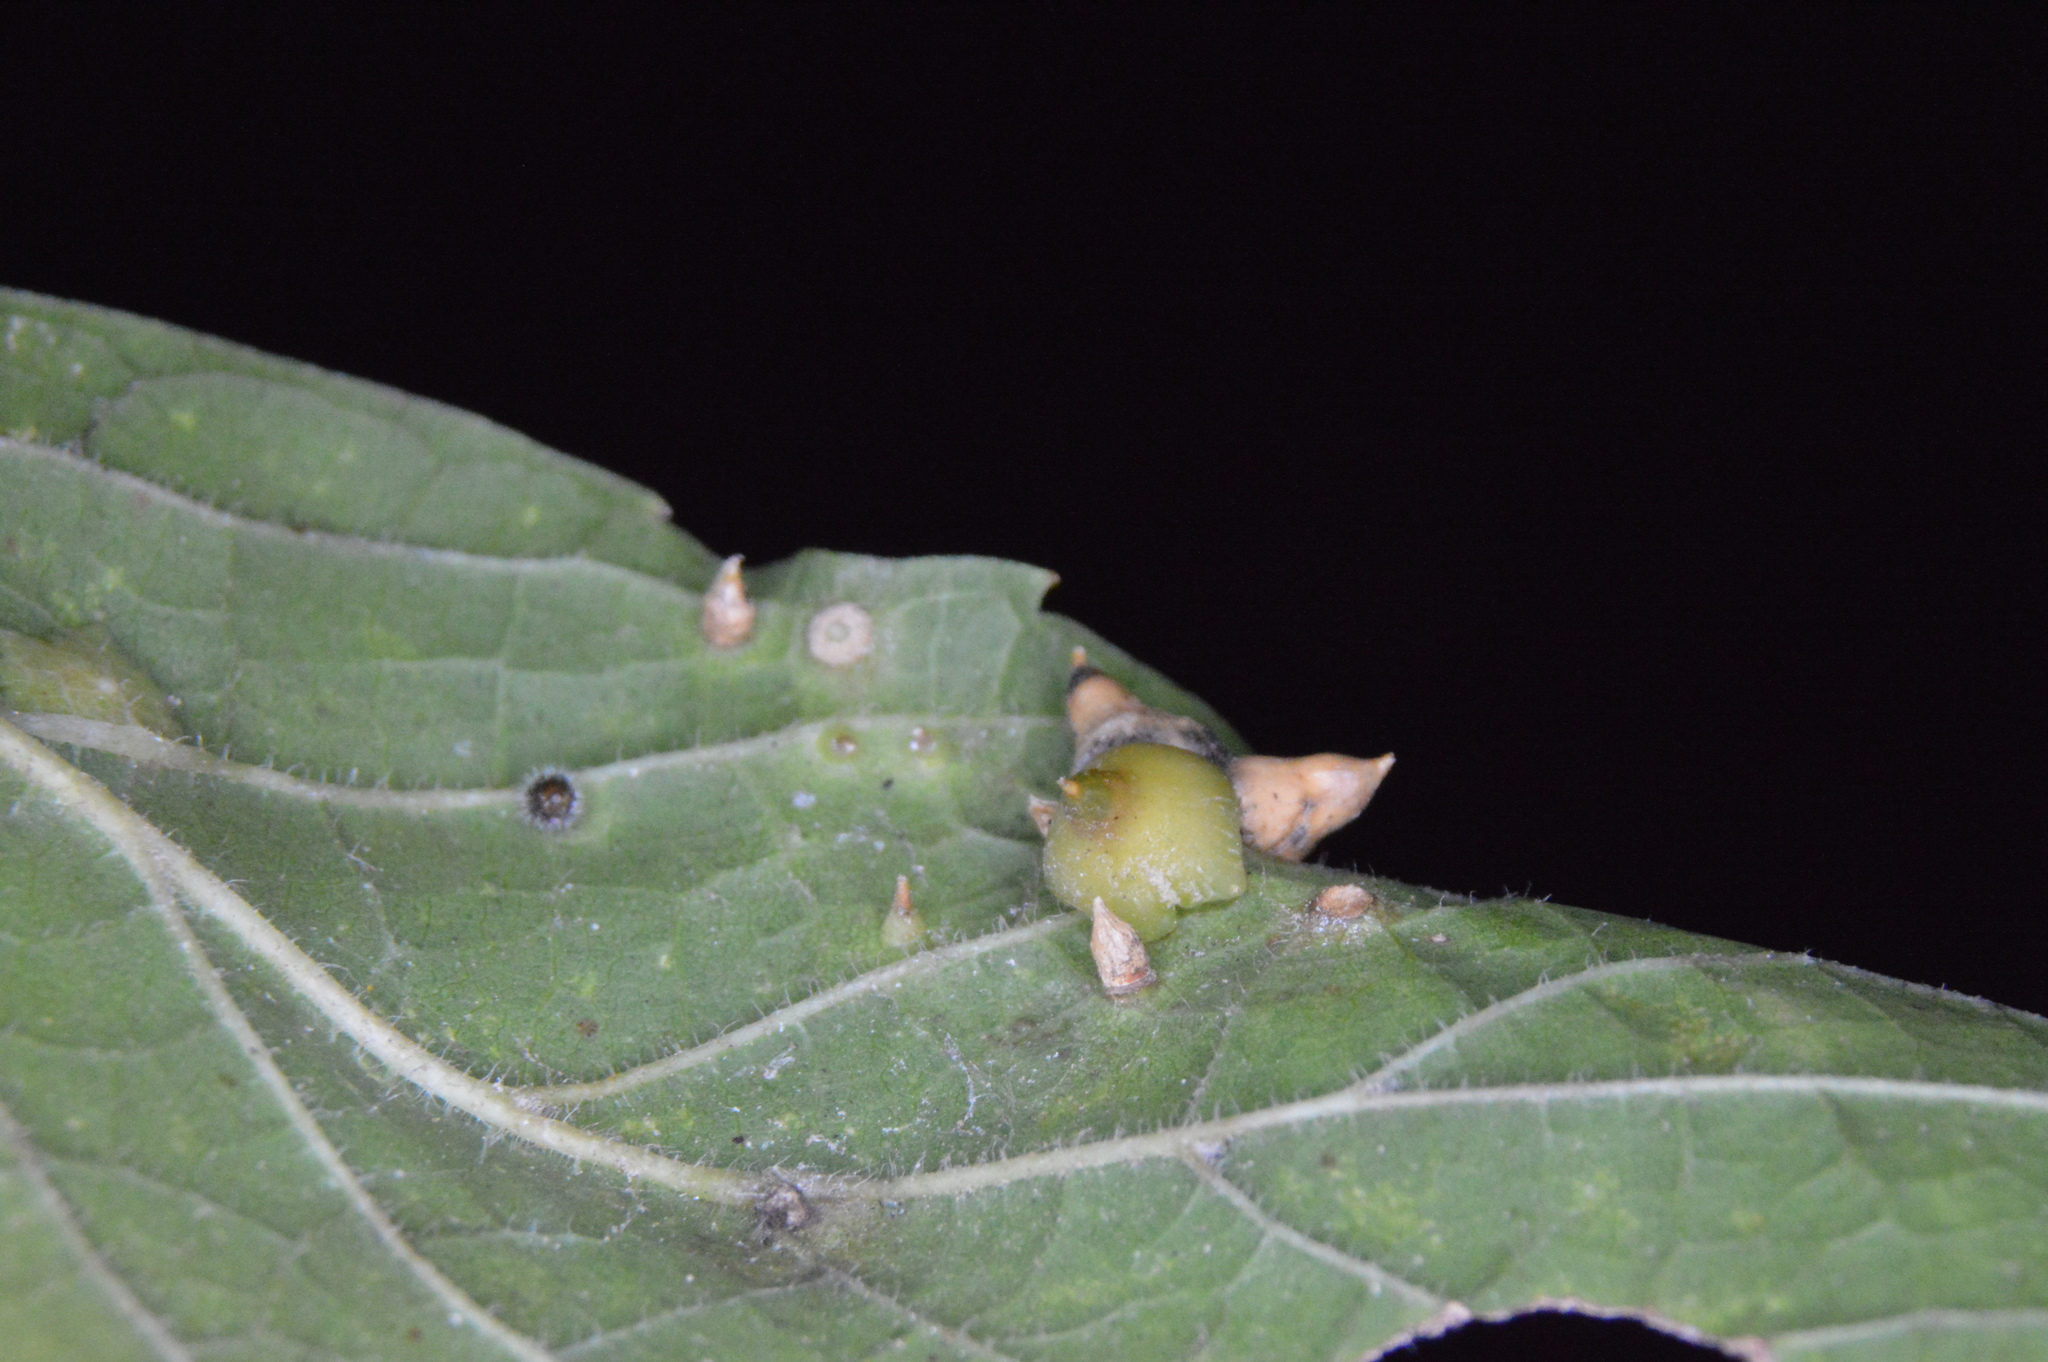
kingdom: Animalia
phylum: Arthropoda
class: Insecta
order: Diptera
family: Cecidomyiidae
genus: Celticecis
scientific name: Celticecis spiniformis
